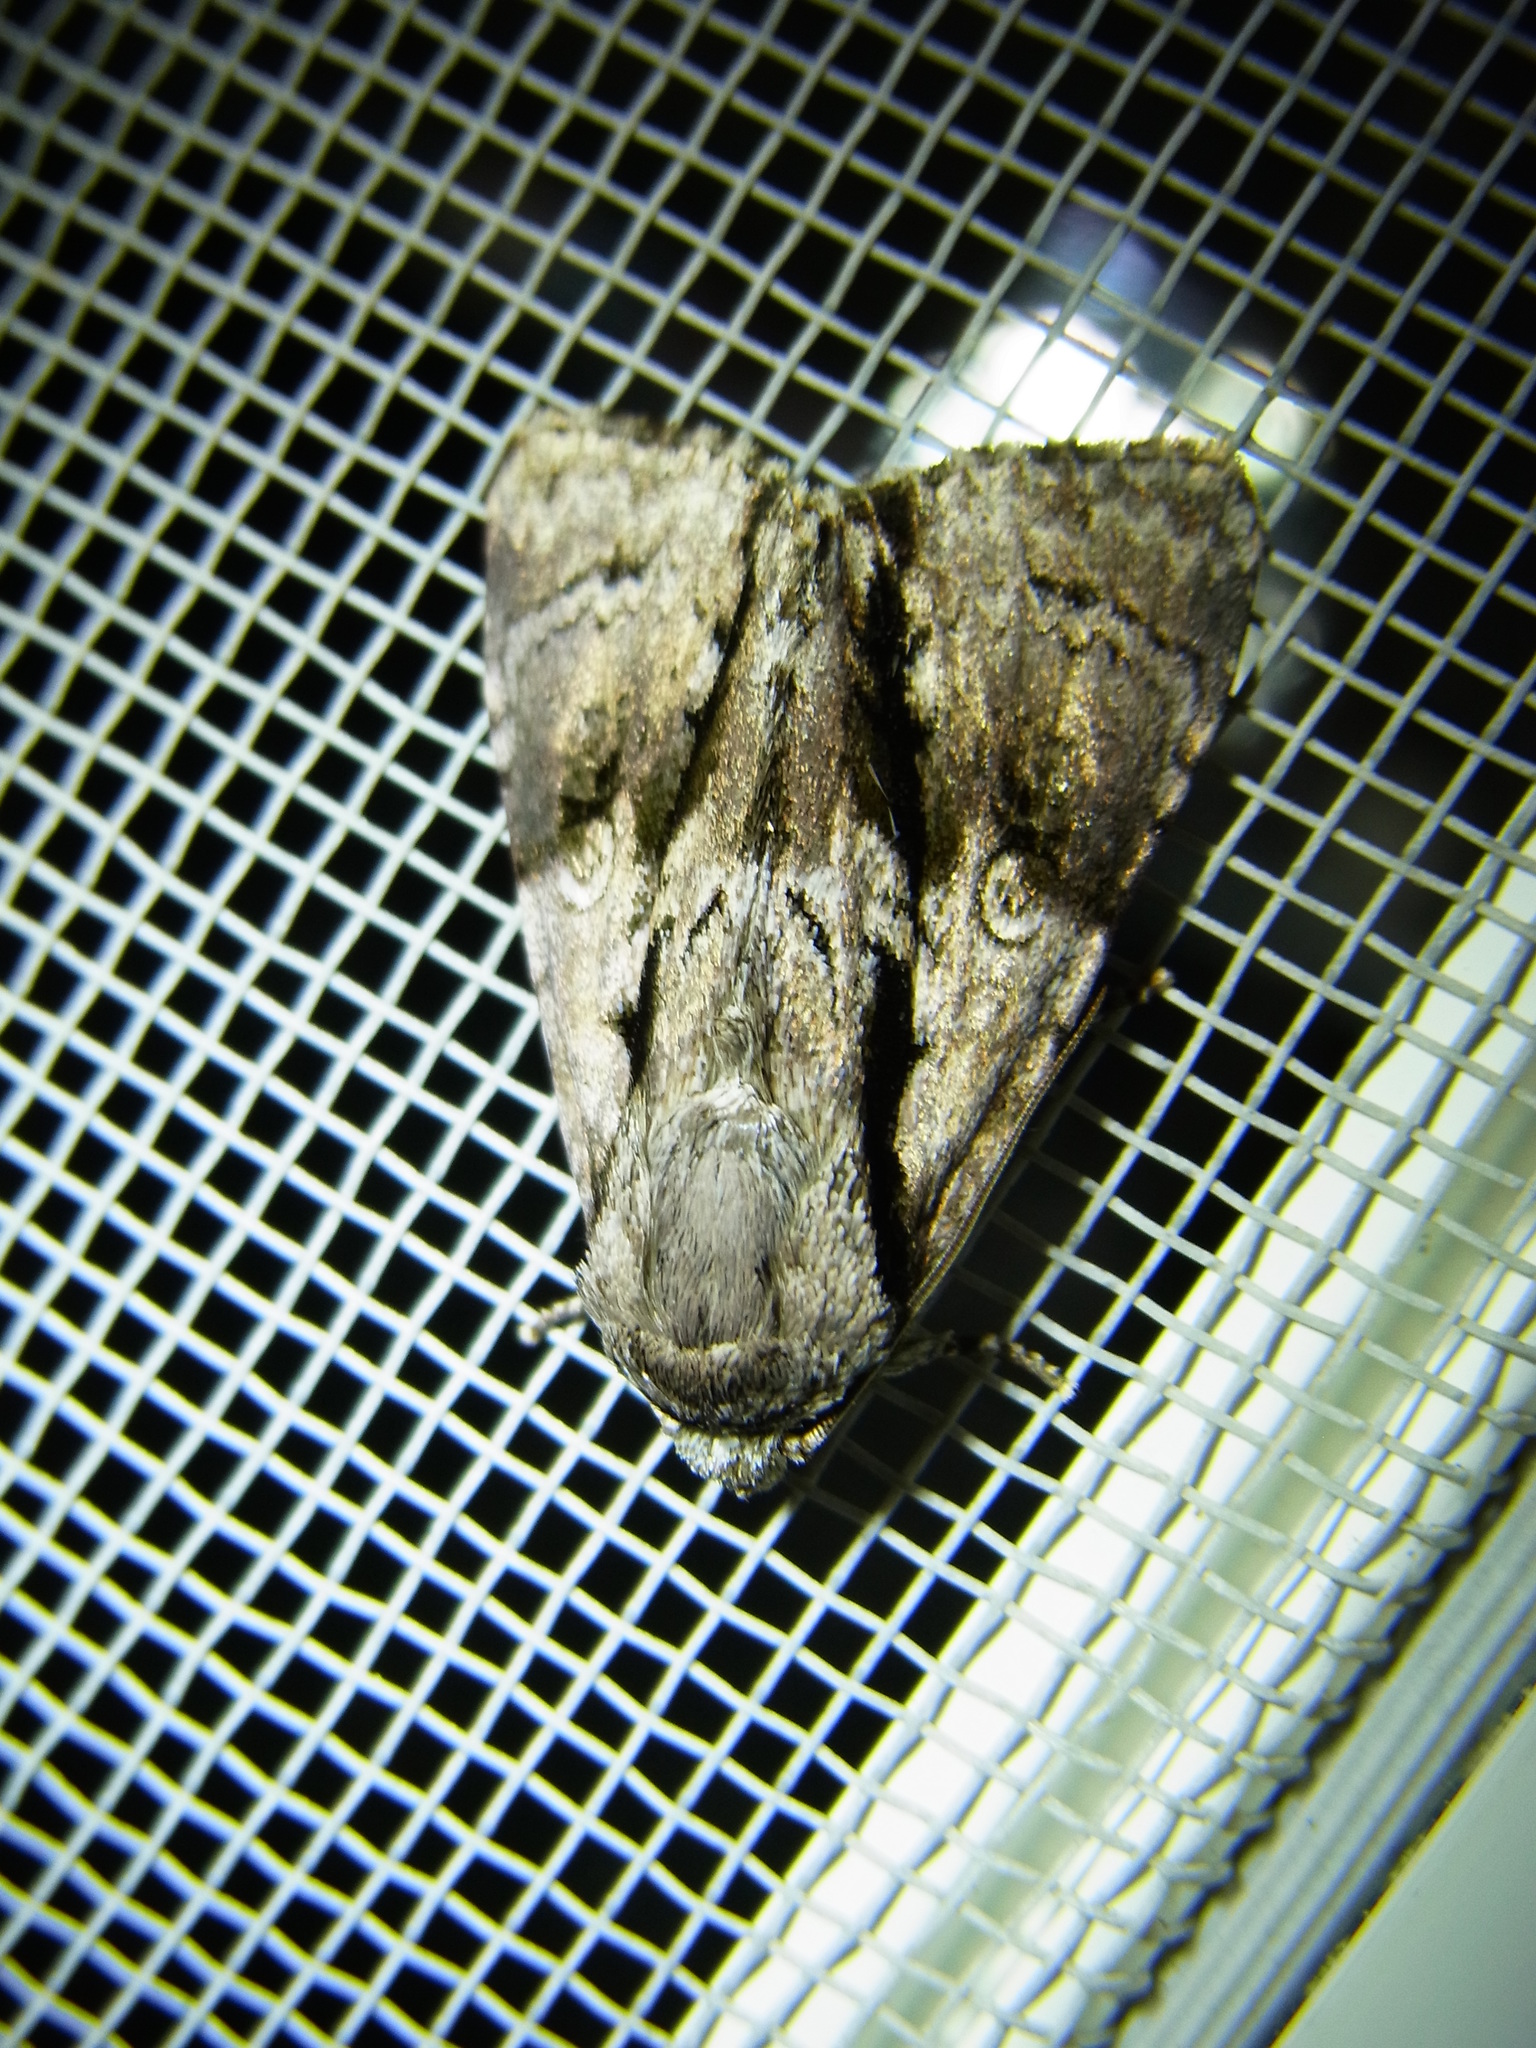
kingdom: Animalia
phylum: Arthropoda
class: Insecta
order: Lepidoptera
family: Noctuidae
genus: Fascionycta
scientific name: Fascionycta fasciata
